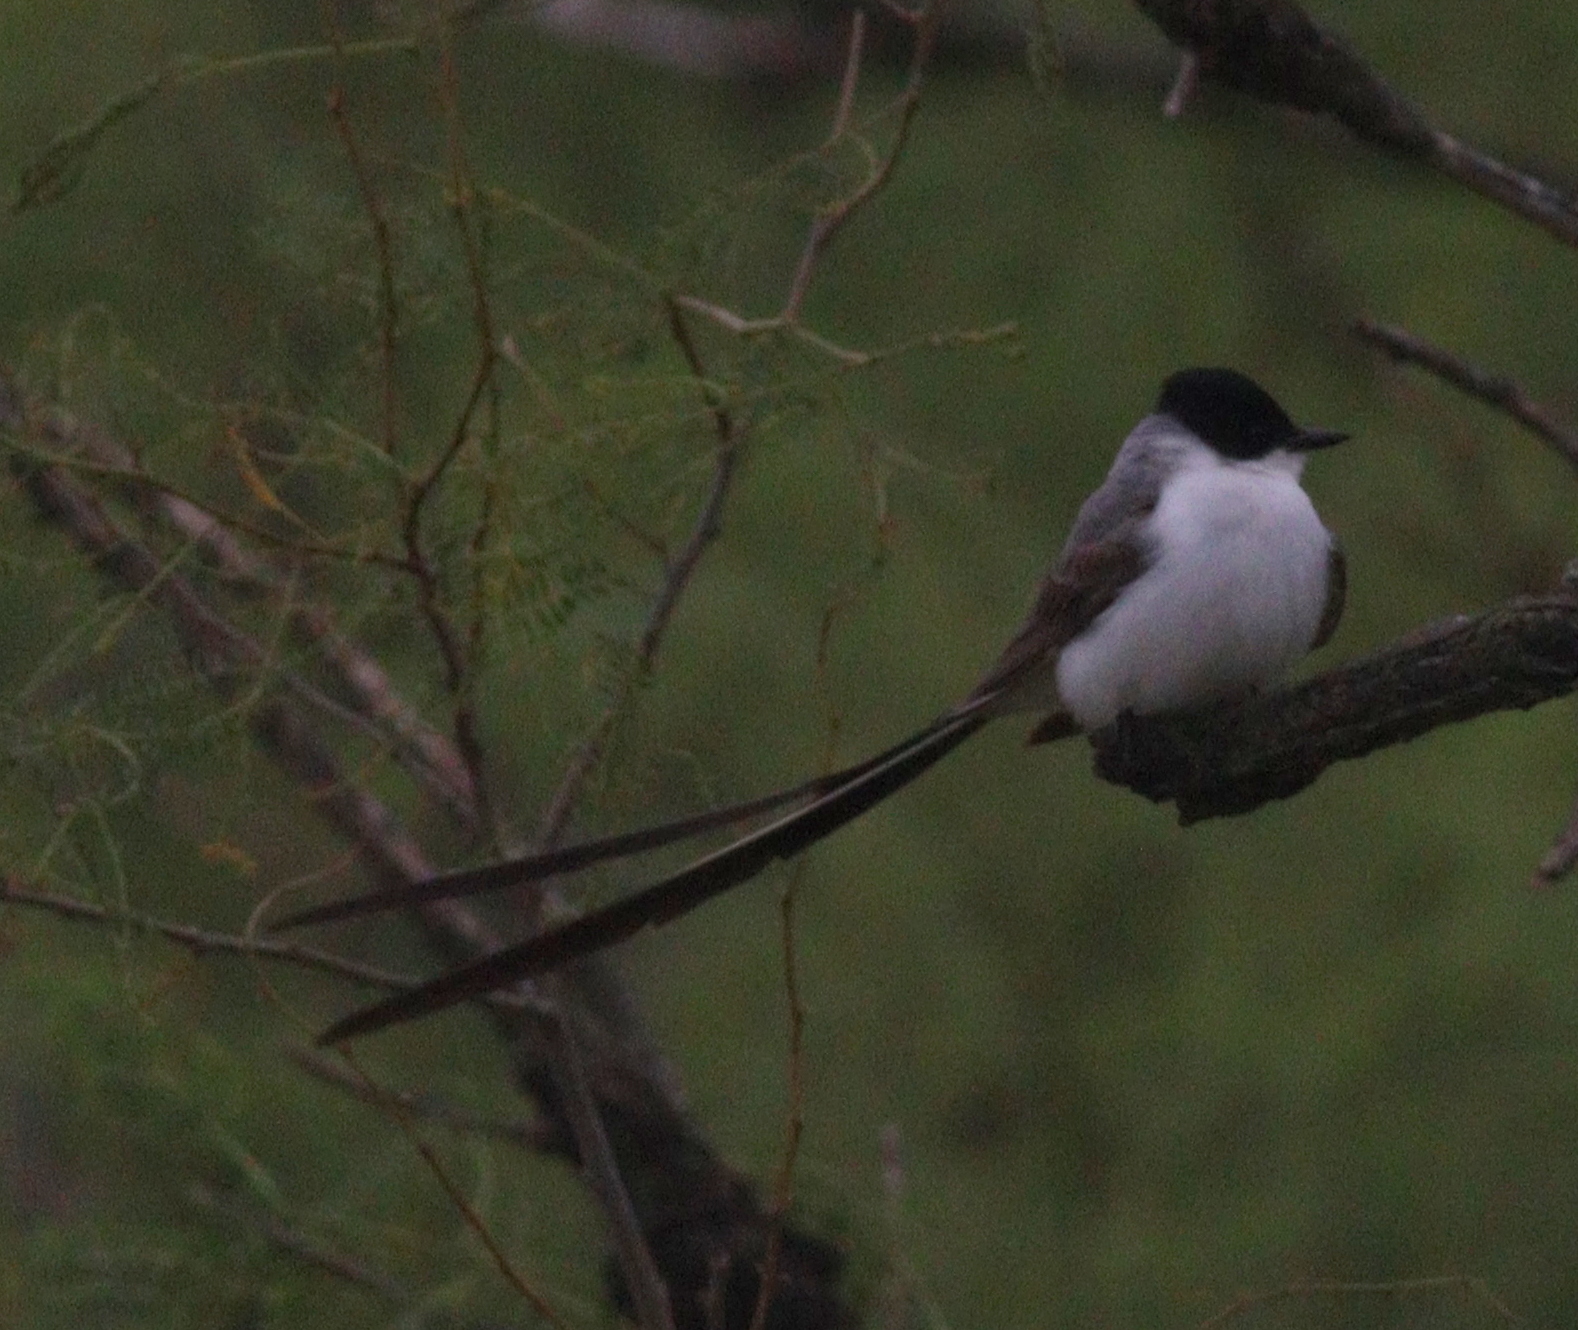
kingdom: Animalia
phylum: Chordata
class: Aves
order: Passeriformes
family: Tyrannidae
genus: Tyrannus
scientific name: Tyrannus savana
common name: Fork-tailed flycatcher
